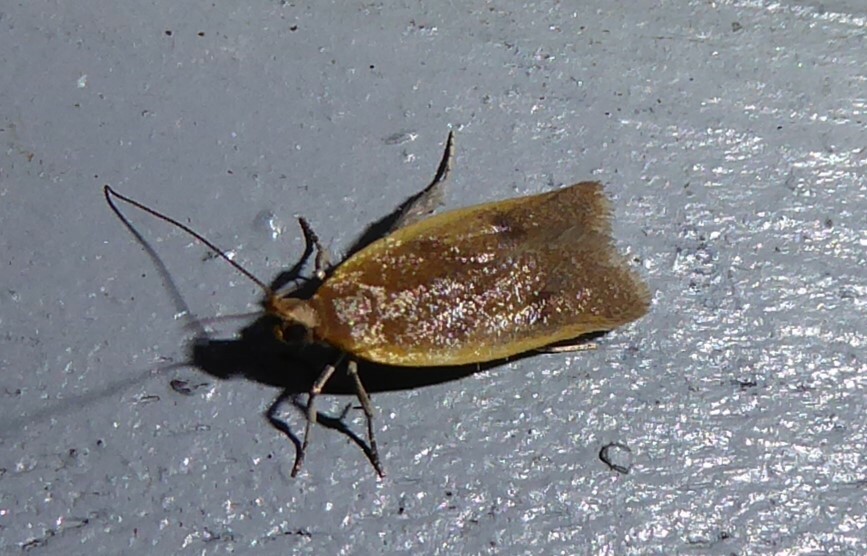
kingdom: Animalia
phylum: Arthropoda
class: Insecta
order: Lepidoptera
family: Oecophoridae
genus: Gymnobathra
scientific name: Gymnobathra parca
